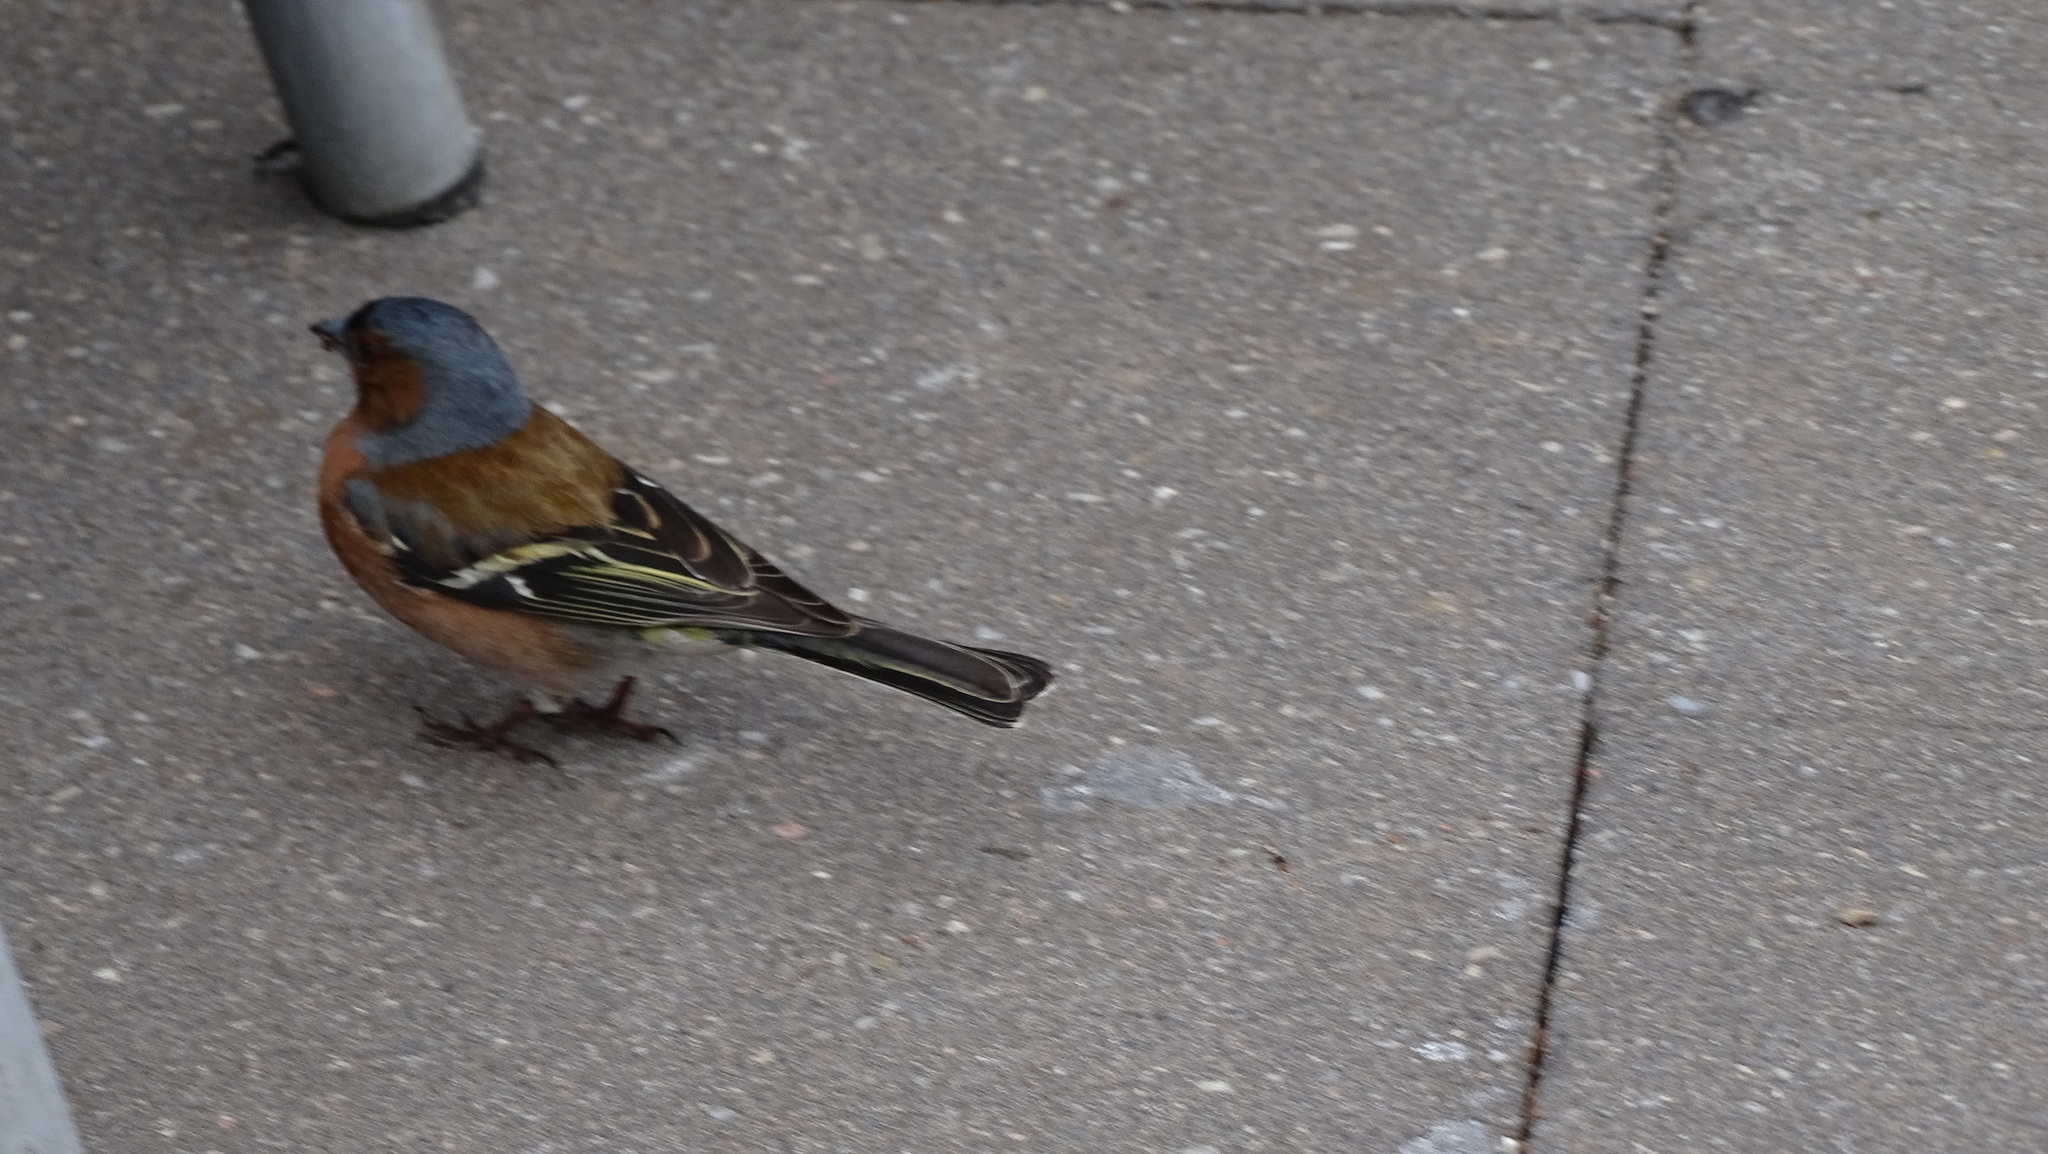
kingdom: Animalia
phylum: Chordata
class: Aves
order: Passeriformes
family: Fringillidae
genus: Fringilla
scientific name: Fringilla coelebs
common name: Common chaffinch
